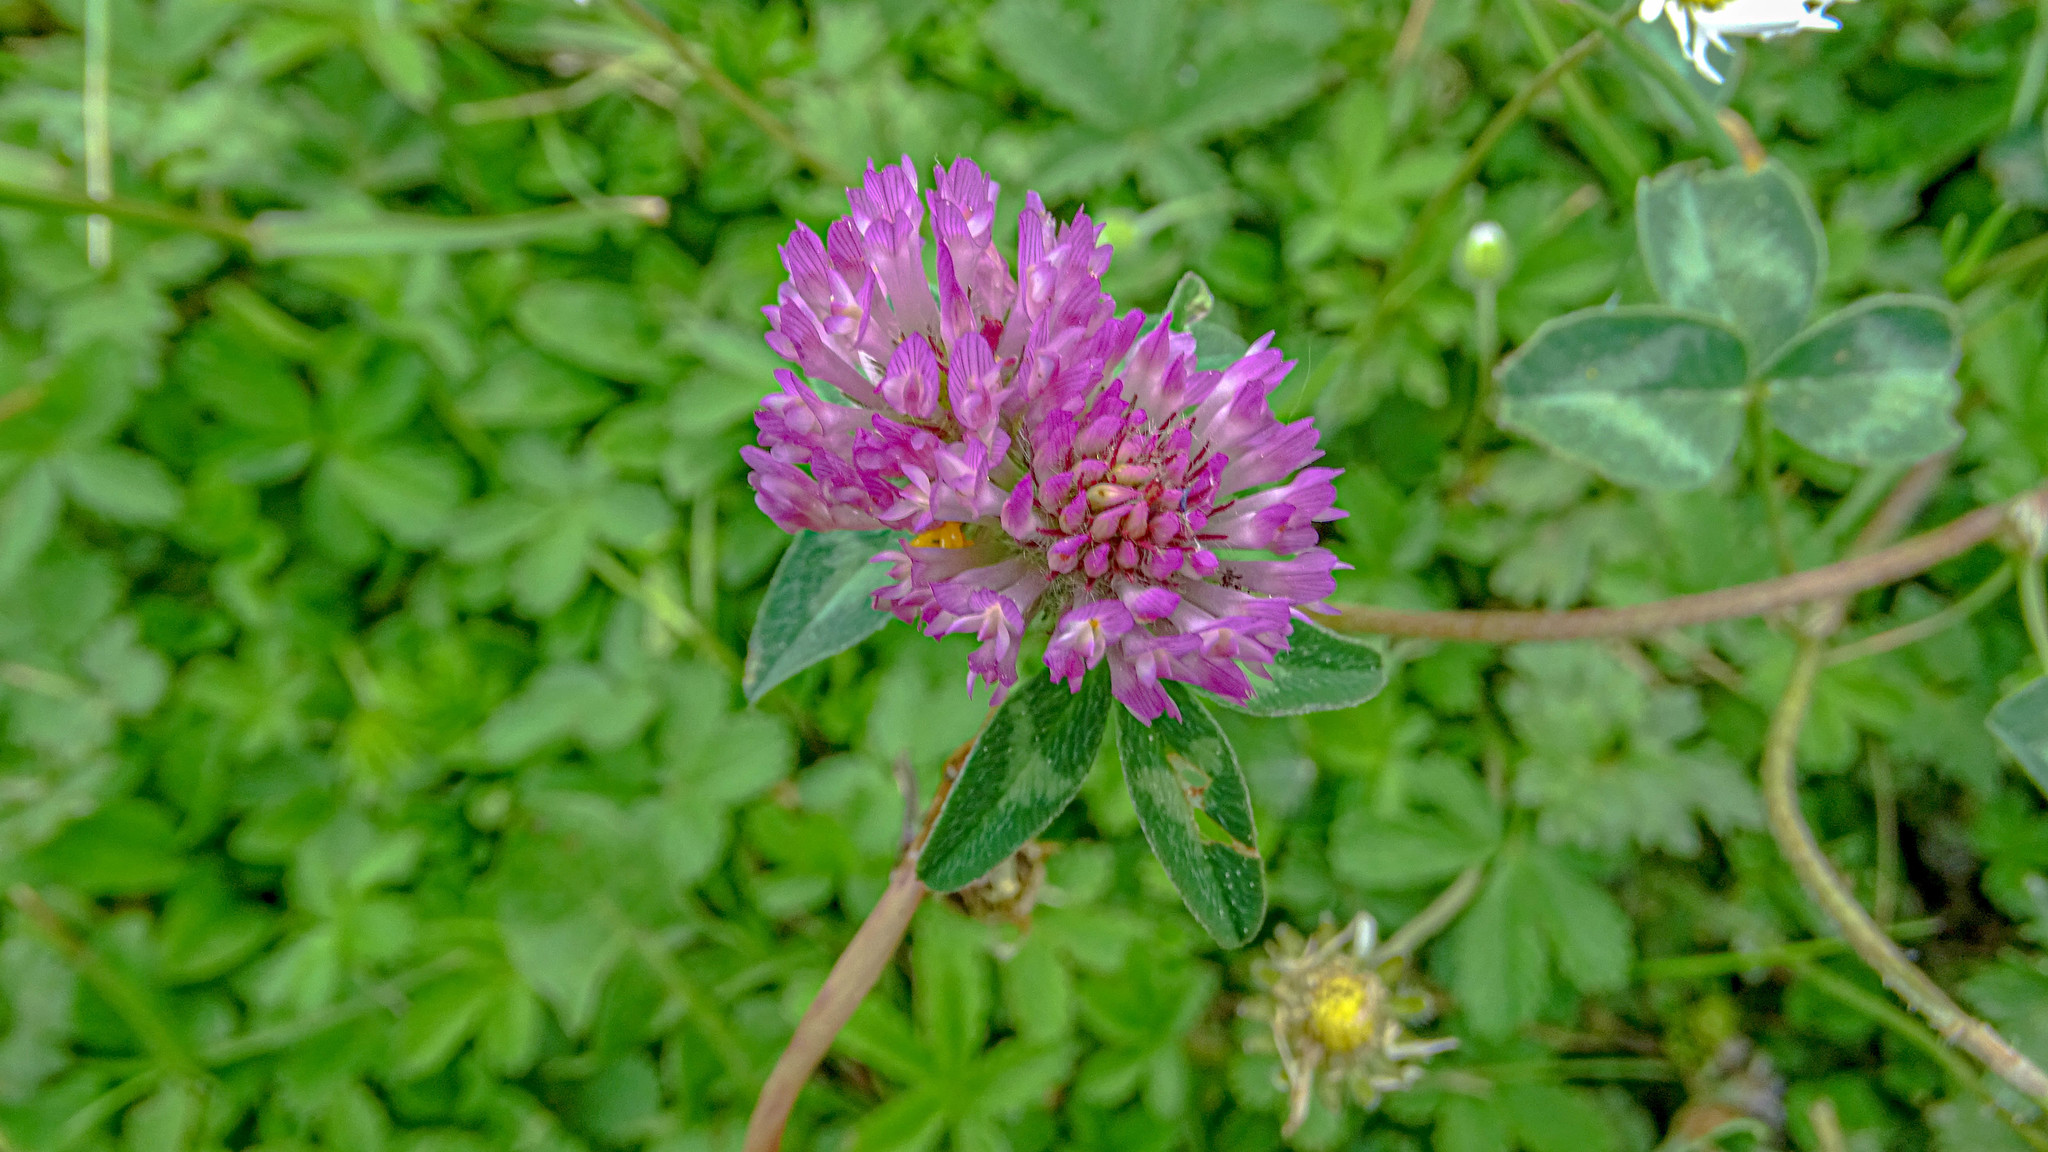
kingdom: Plantae
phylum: Tracheophyta
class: Magnoliopsida
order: Fabales
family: Fabaceae
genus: Trifolium
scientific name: Trifolium pratense
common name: Red clover
